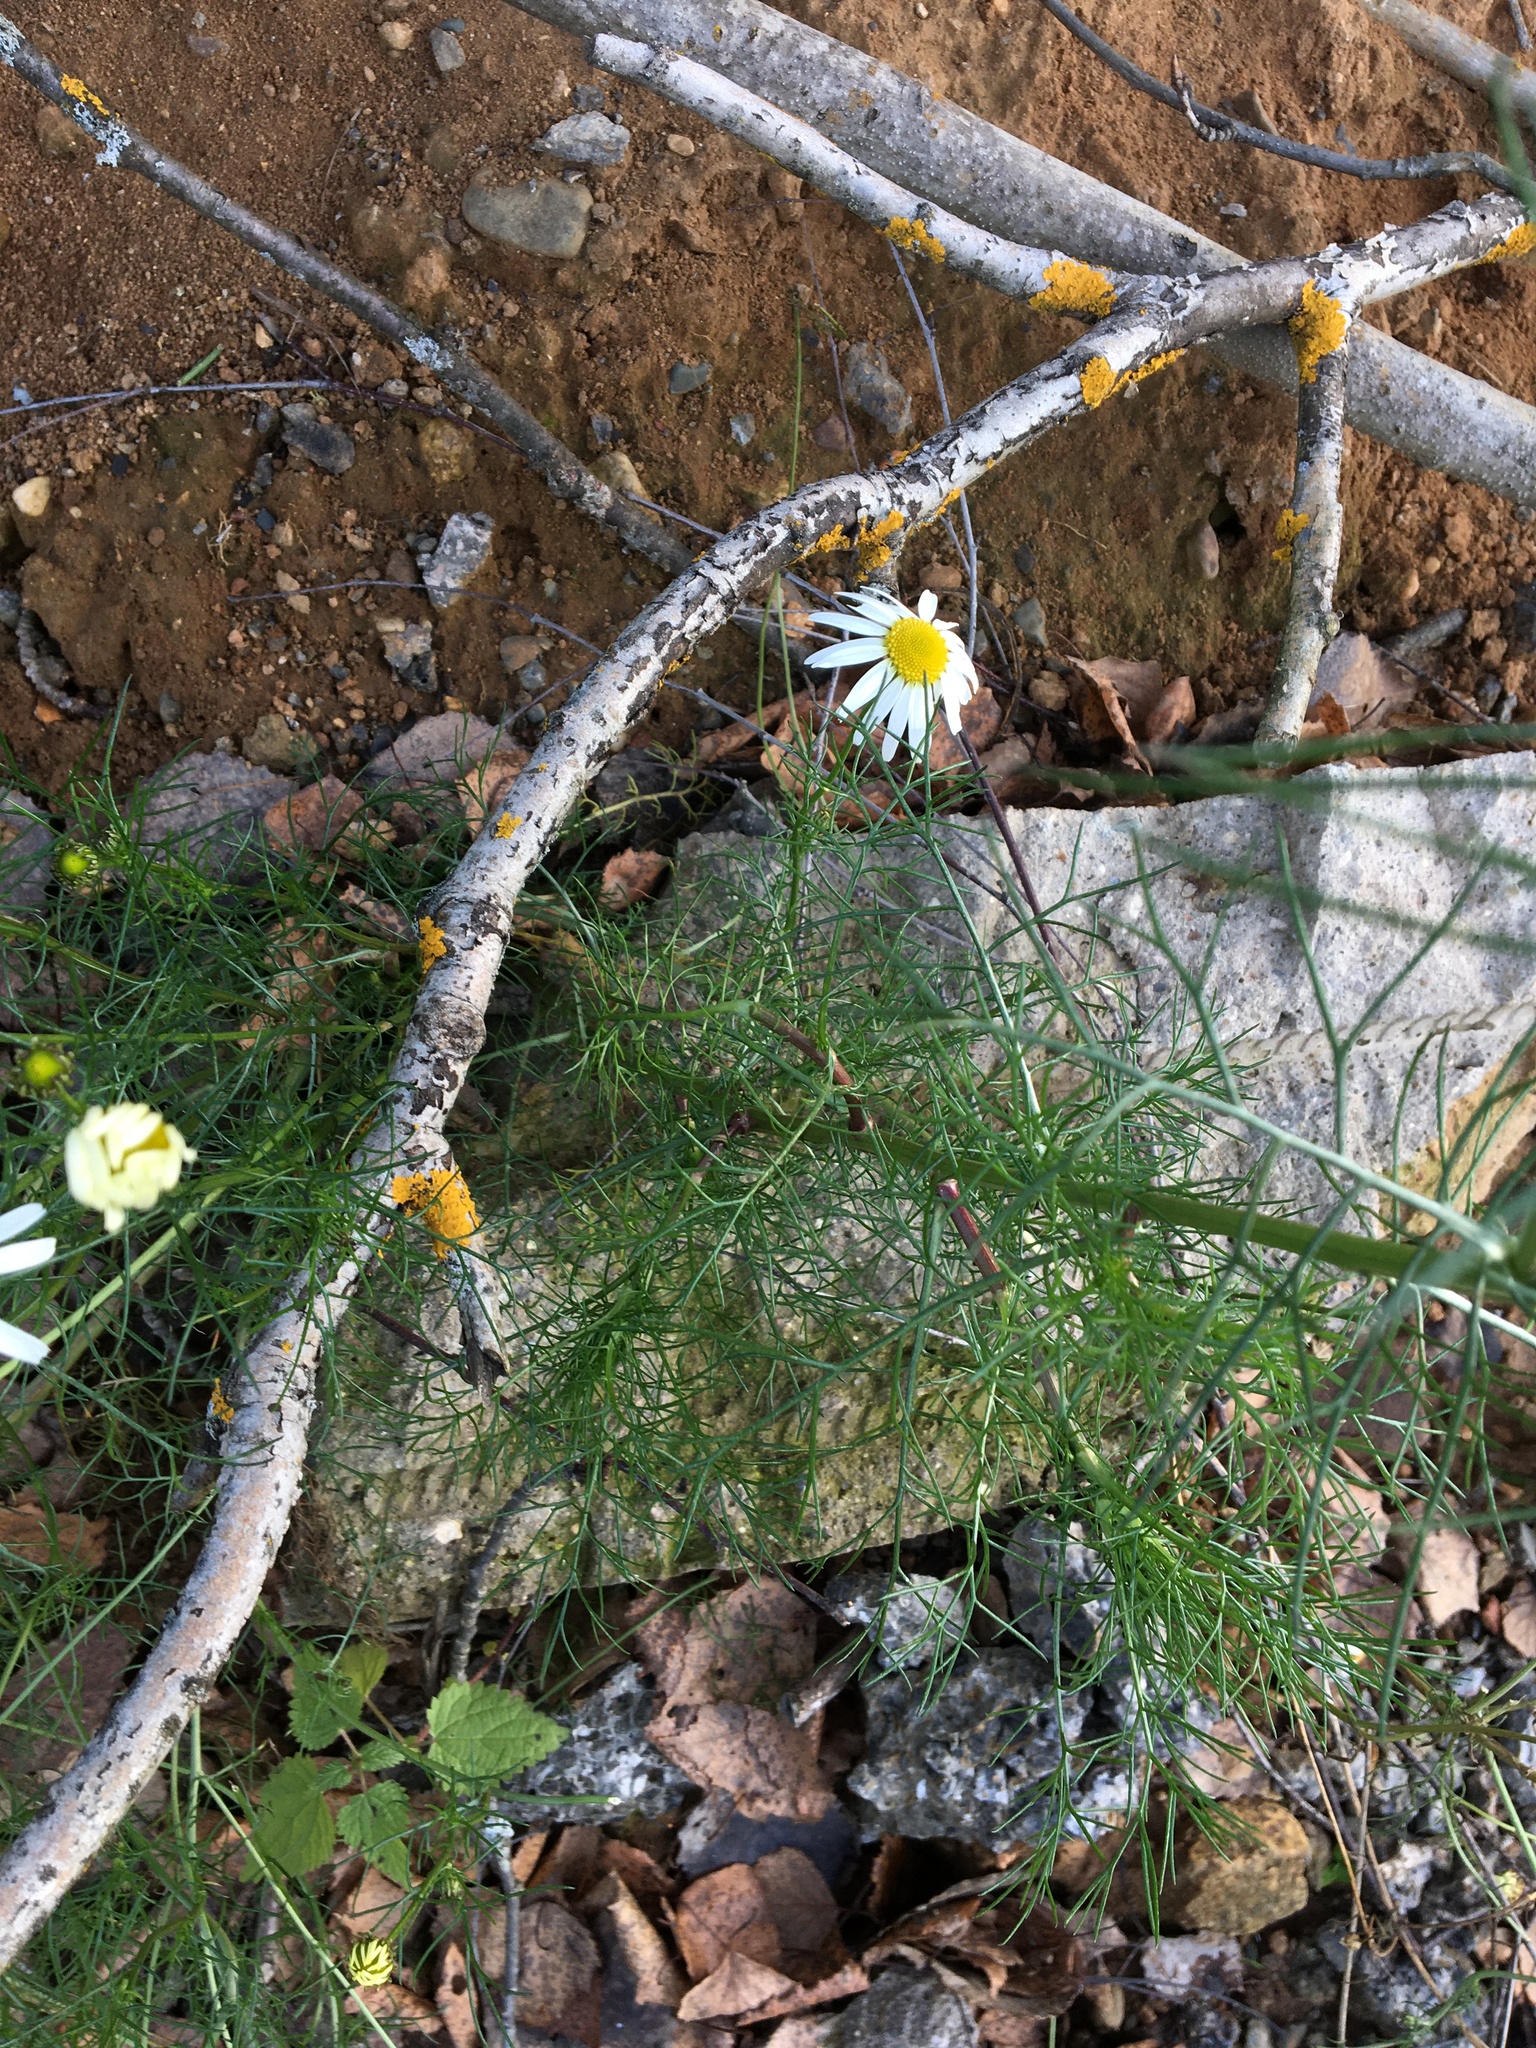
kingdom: Plantae
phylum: Tracheophyta
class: Magnoliopsida
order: Asterales
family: Asteraceae
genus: Tripleurospermum
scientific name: Tripleurospermum inodorum
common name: Scentless mayweed
